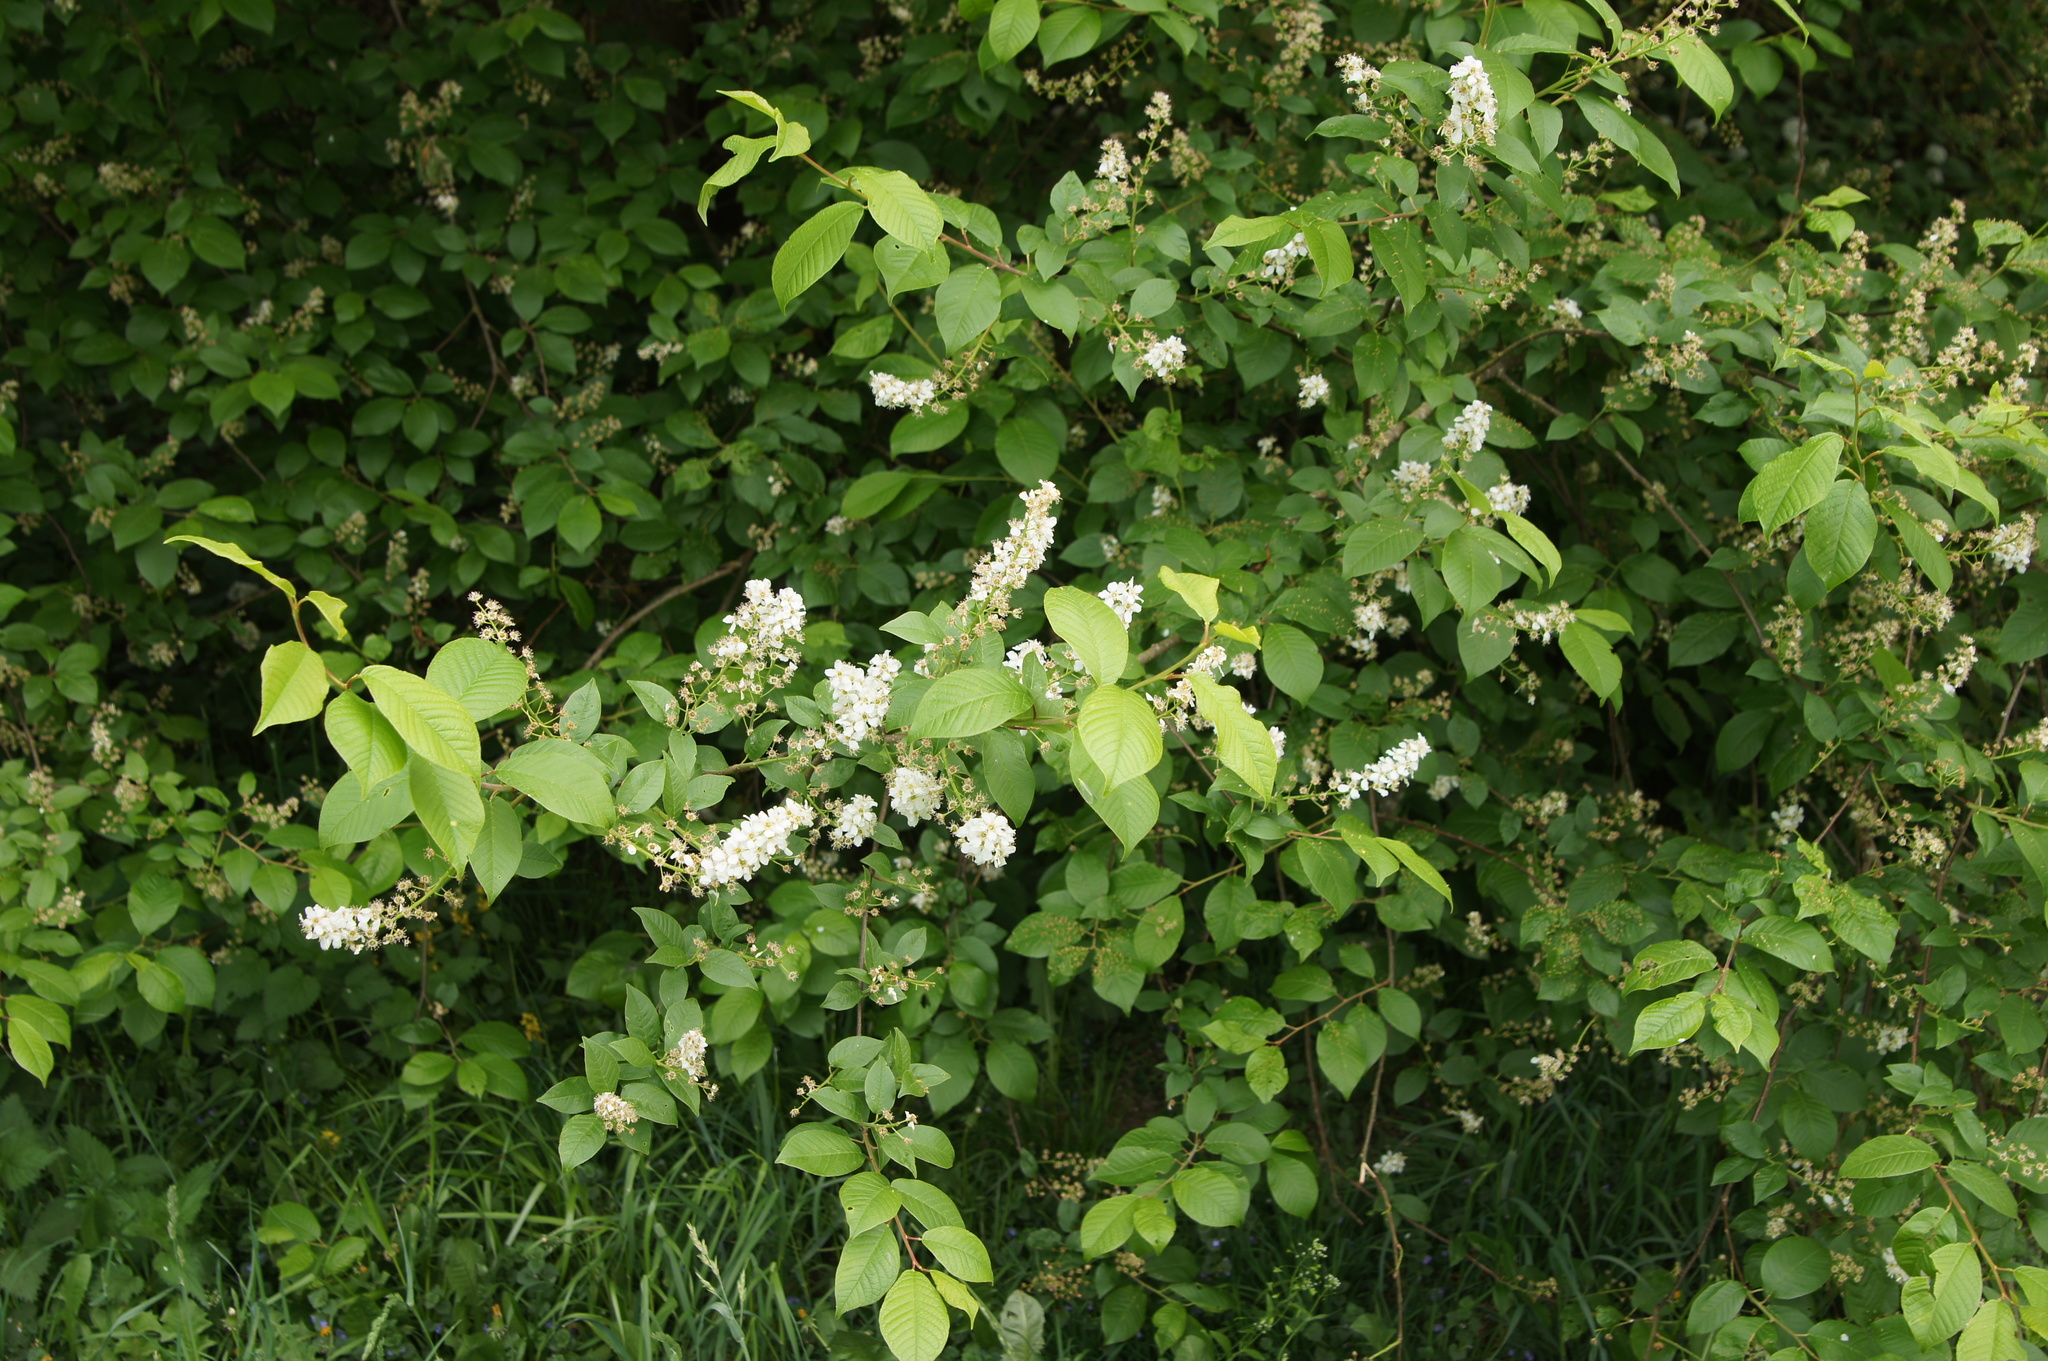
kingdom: Plantae
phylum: Tracheophyta
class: Magnoliopsida
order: Rosales
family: Rosaceae
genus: Prunus
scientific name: Prunus padus
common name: Bird cherry
